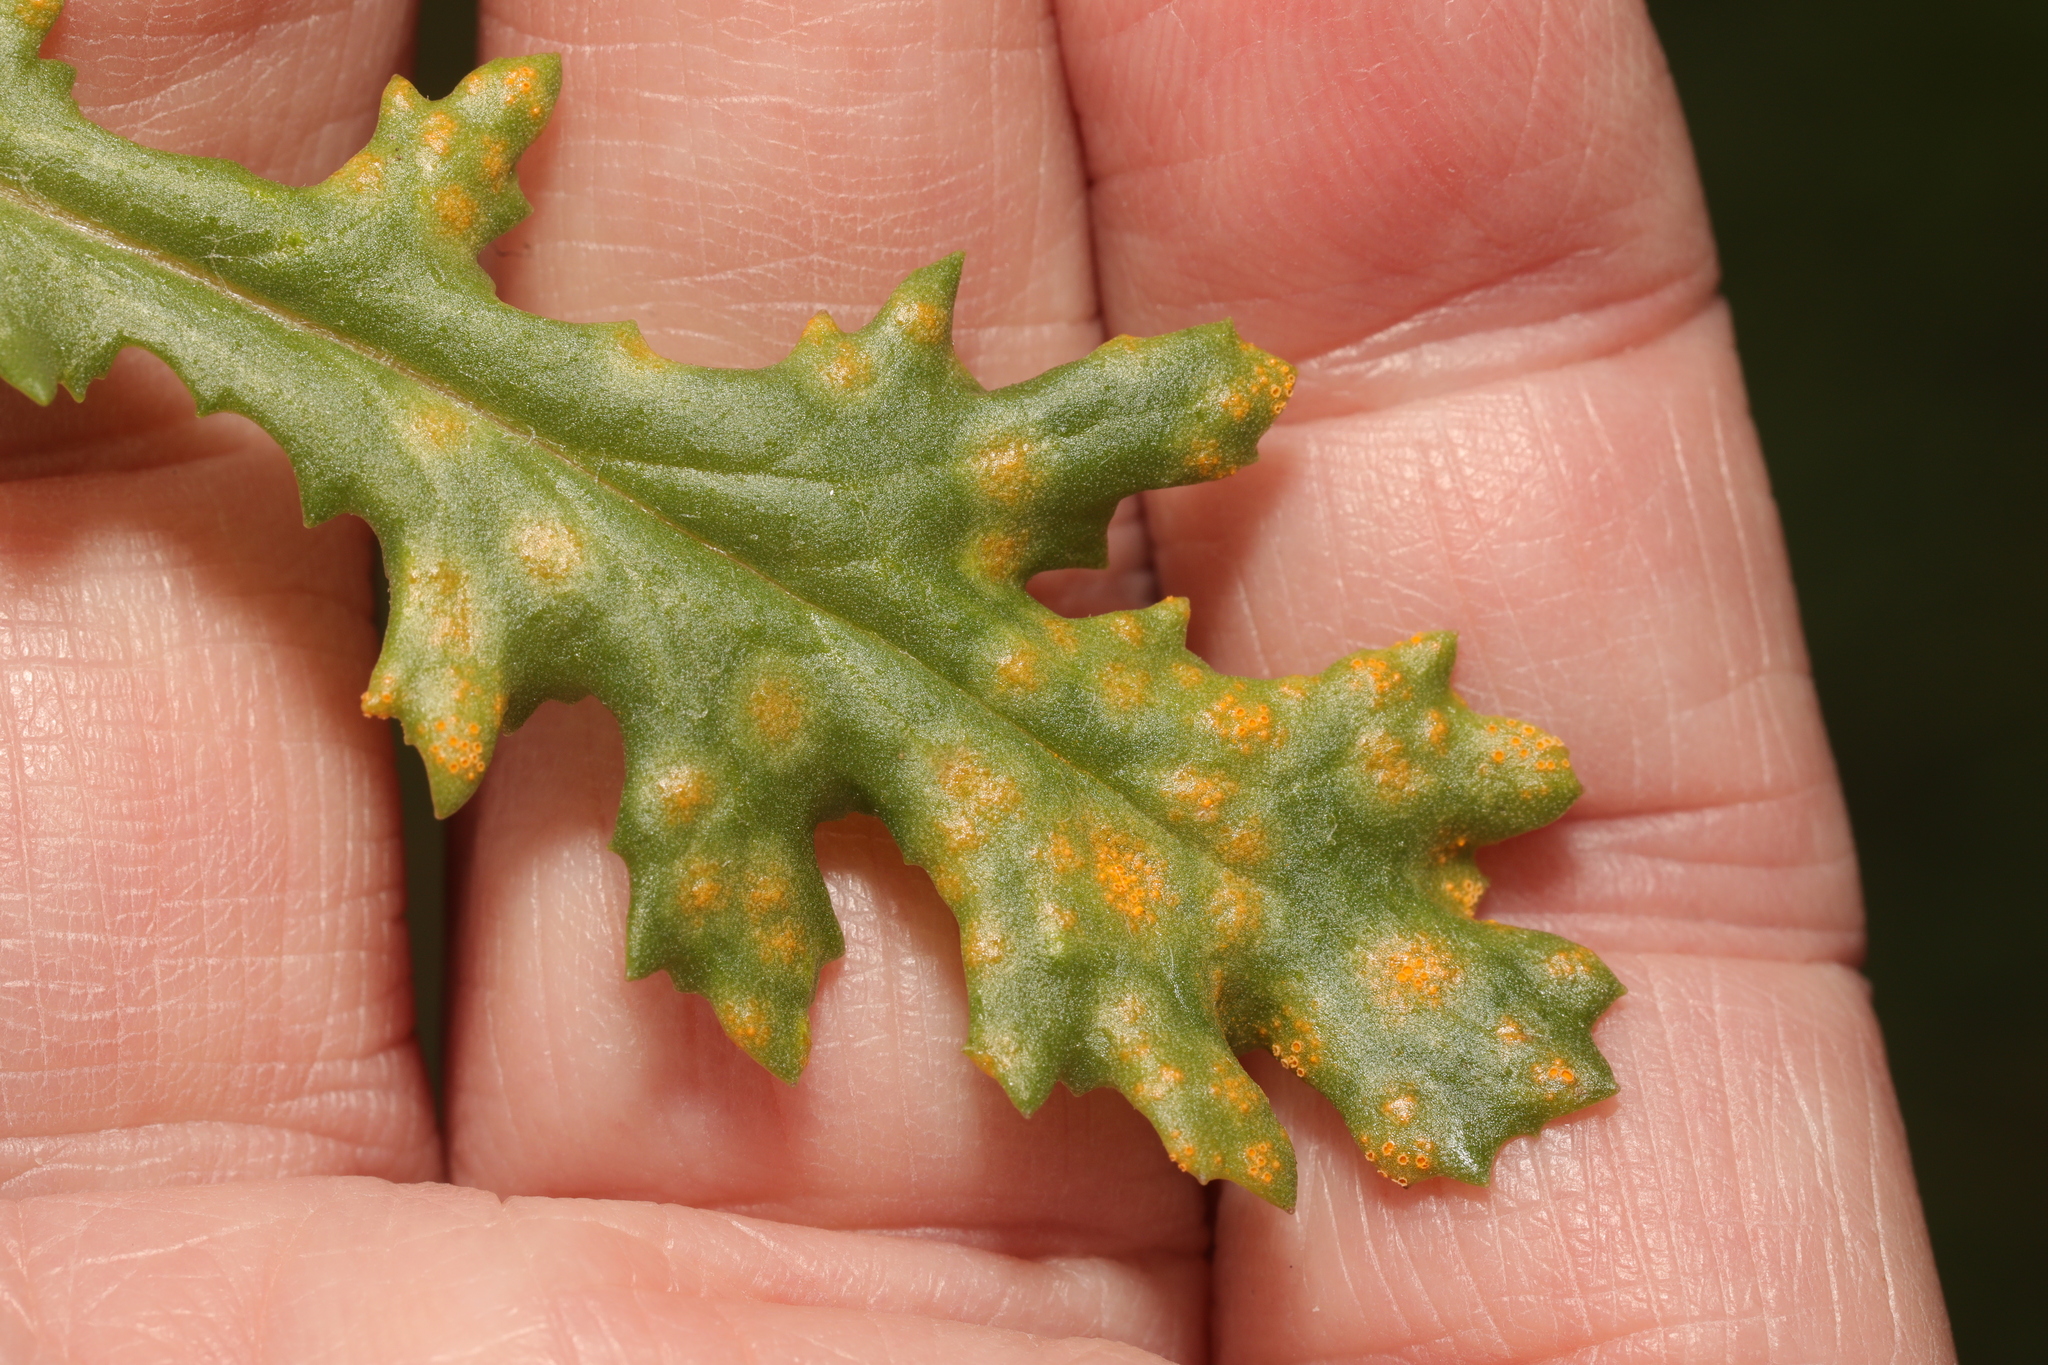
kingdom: Fungi
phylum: Basidiomycota
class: Pucciniomycetes
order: Pucciniales
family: Pucciniaceae
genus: Puccinia
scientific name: Puccinia lagenophorae
